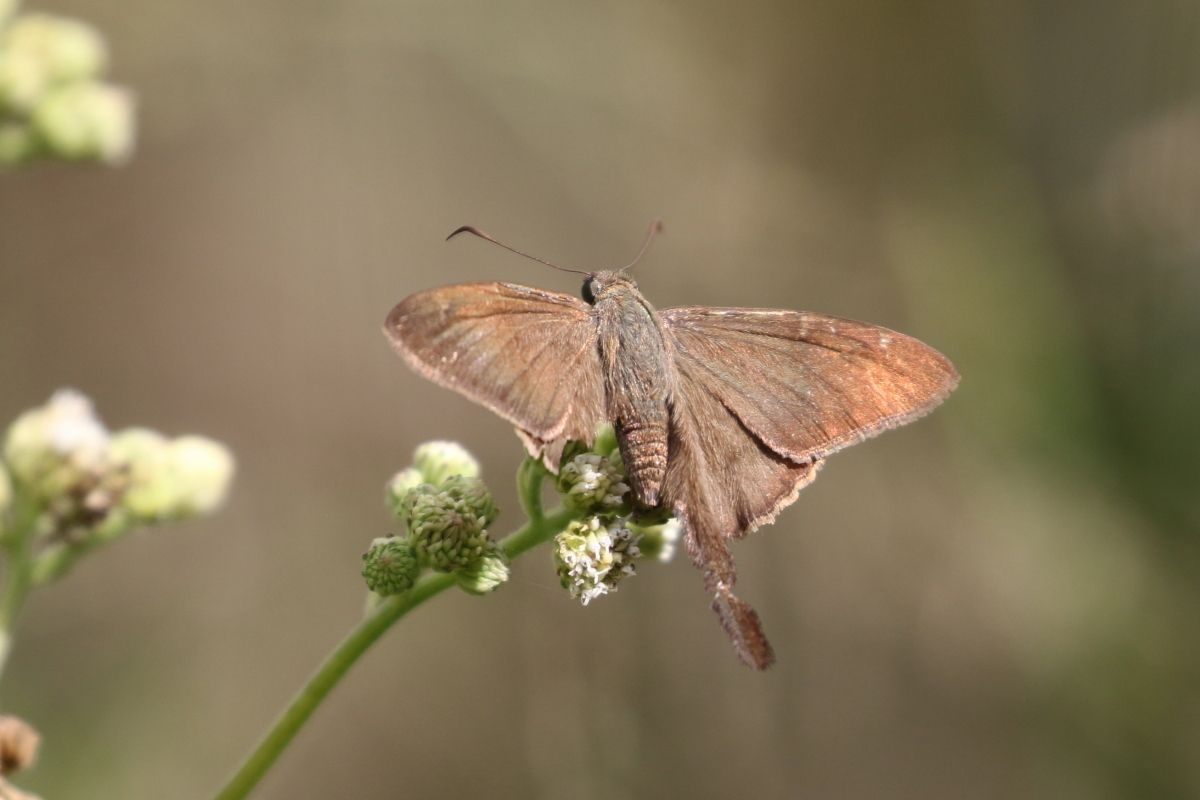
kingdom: Animalia
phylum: Arthropoda
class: Insecta
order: Lepidoptera
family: Hesperiidae
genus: Urbanus
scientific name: Urbanus procne
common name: Brown longtail
